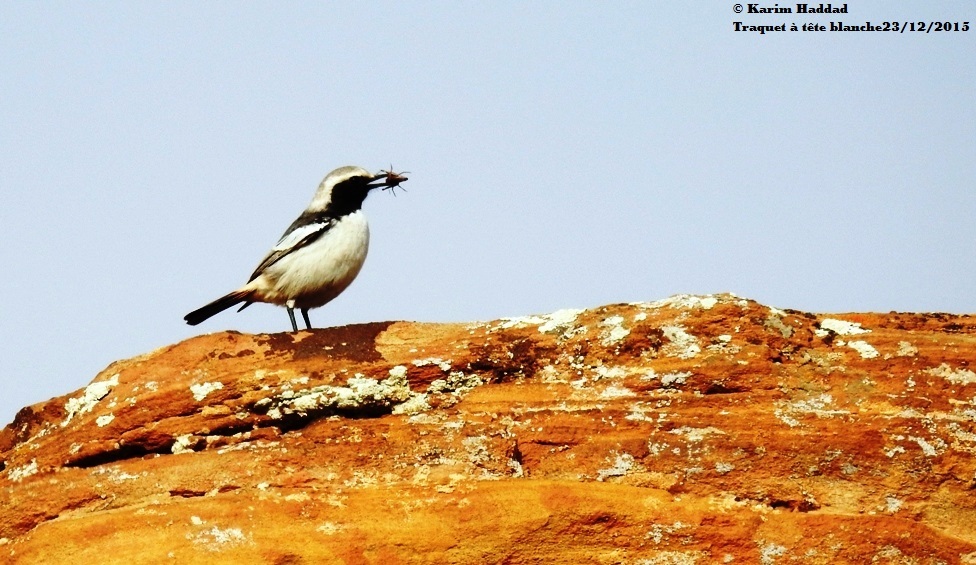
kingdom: Animalia
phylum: Chordata
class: Aves
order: Passeriformes
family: Muscicapidae
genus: Oenanthe
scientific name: Oenanthe moesta
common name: Red-rumped wheatear
